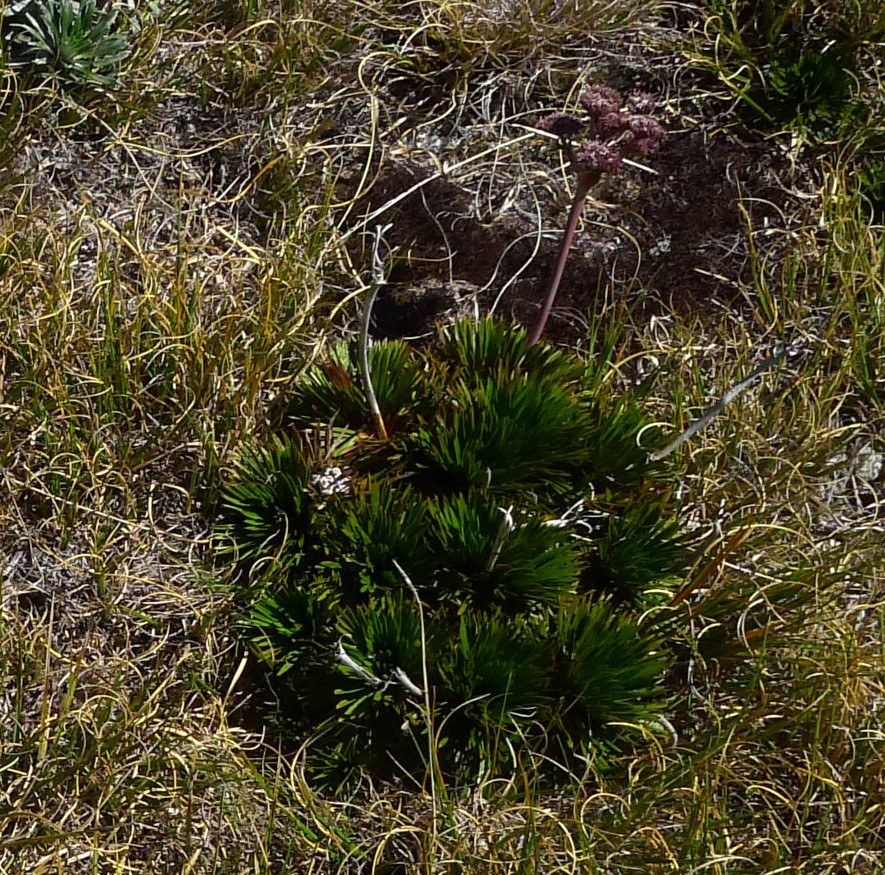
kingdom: Plantae
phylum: Tracheophyta
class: Magnoliopsida
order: Apiales
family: Apiaceae
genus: Aciphylla
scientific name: Aciphylla congesta
